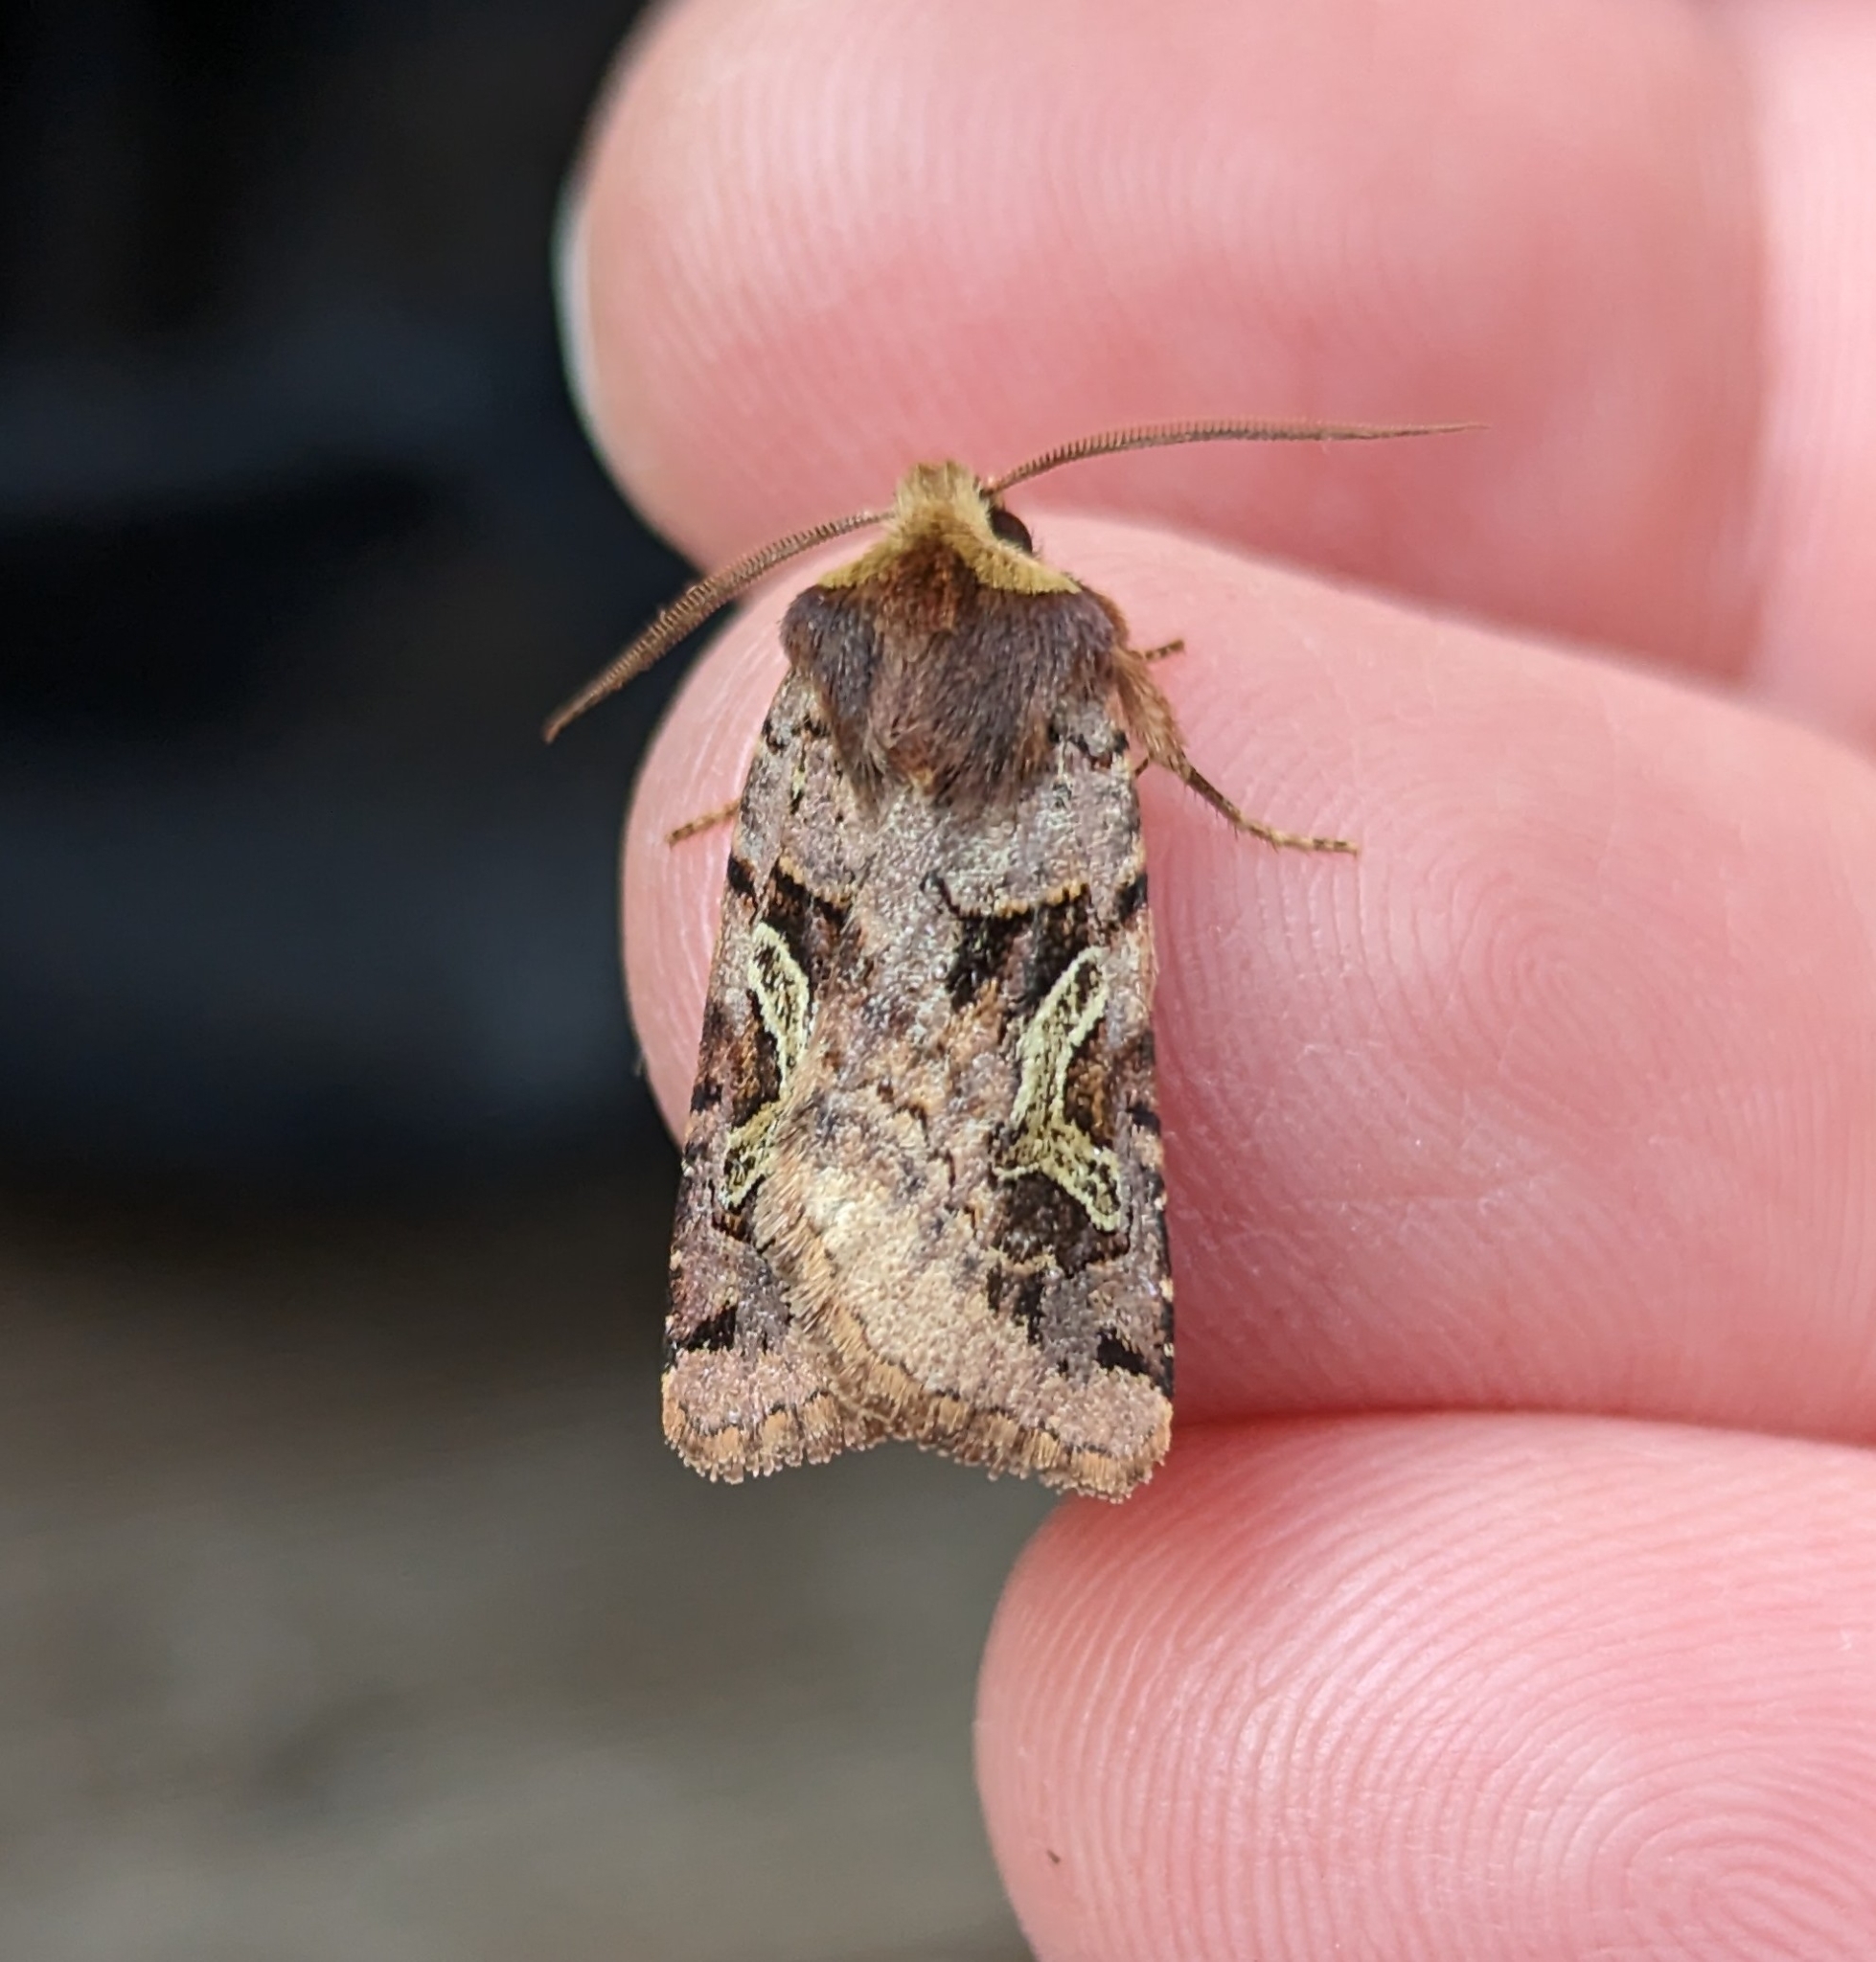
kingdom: Animalia
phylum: Arthropoda
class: Insecta
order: Lepidoptera
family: Noctuidae
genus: Cerastis
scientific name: Cerastis enigmatica
